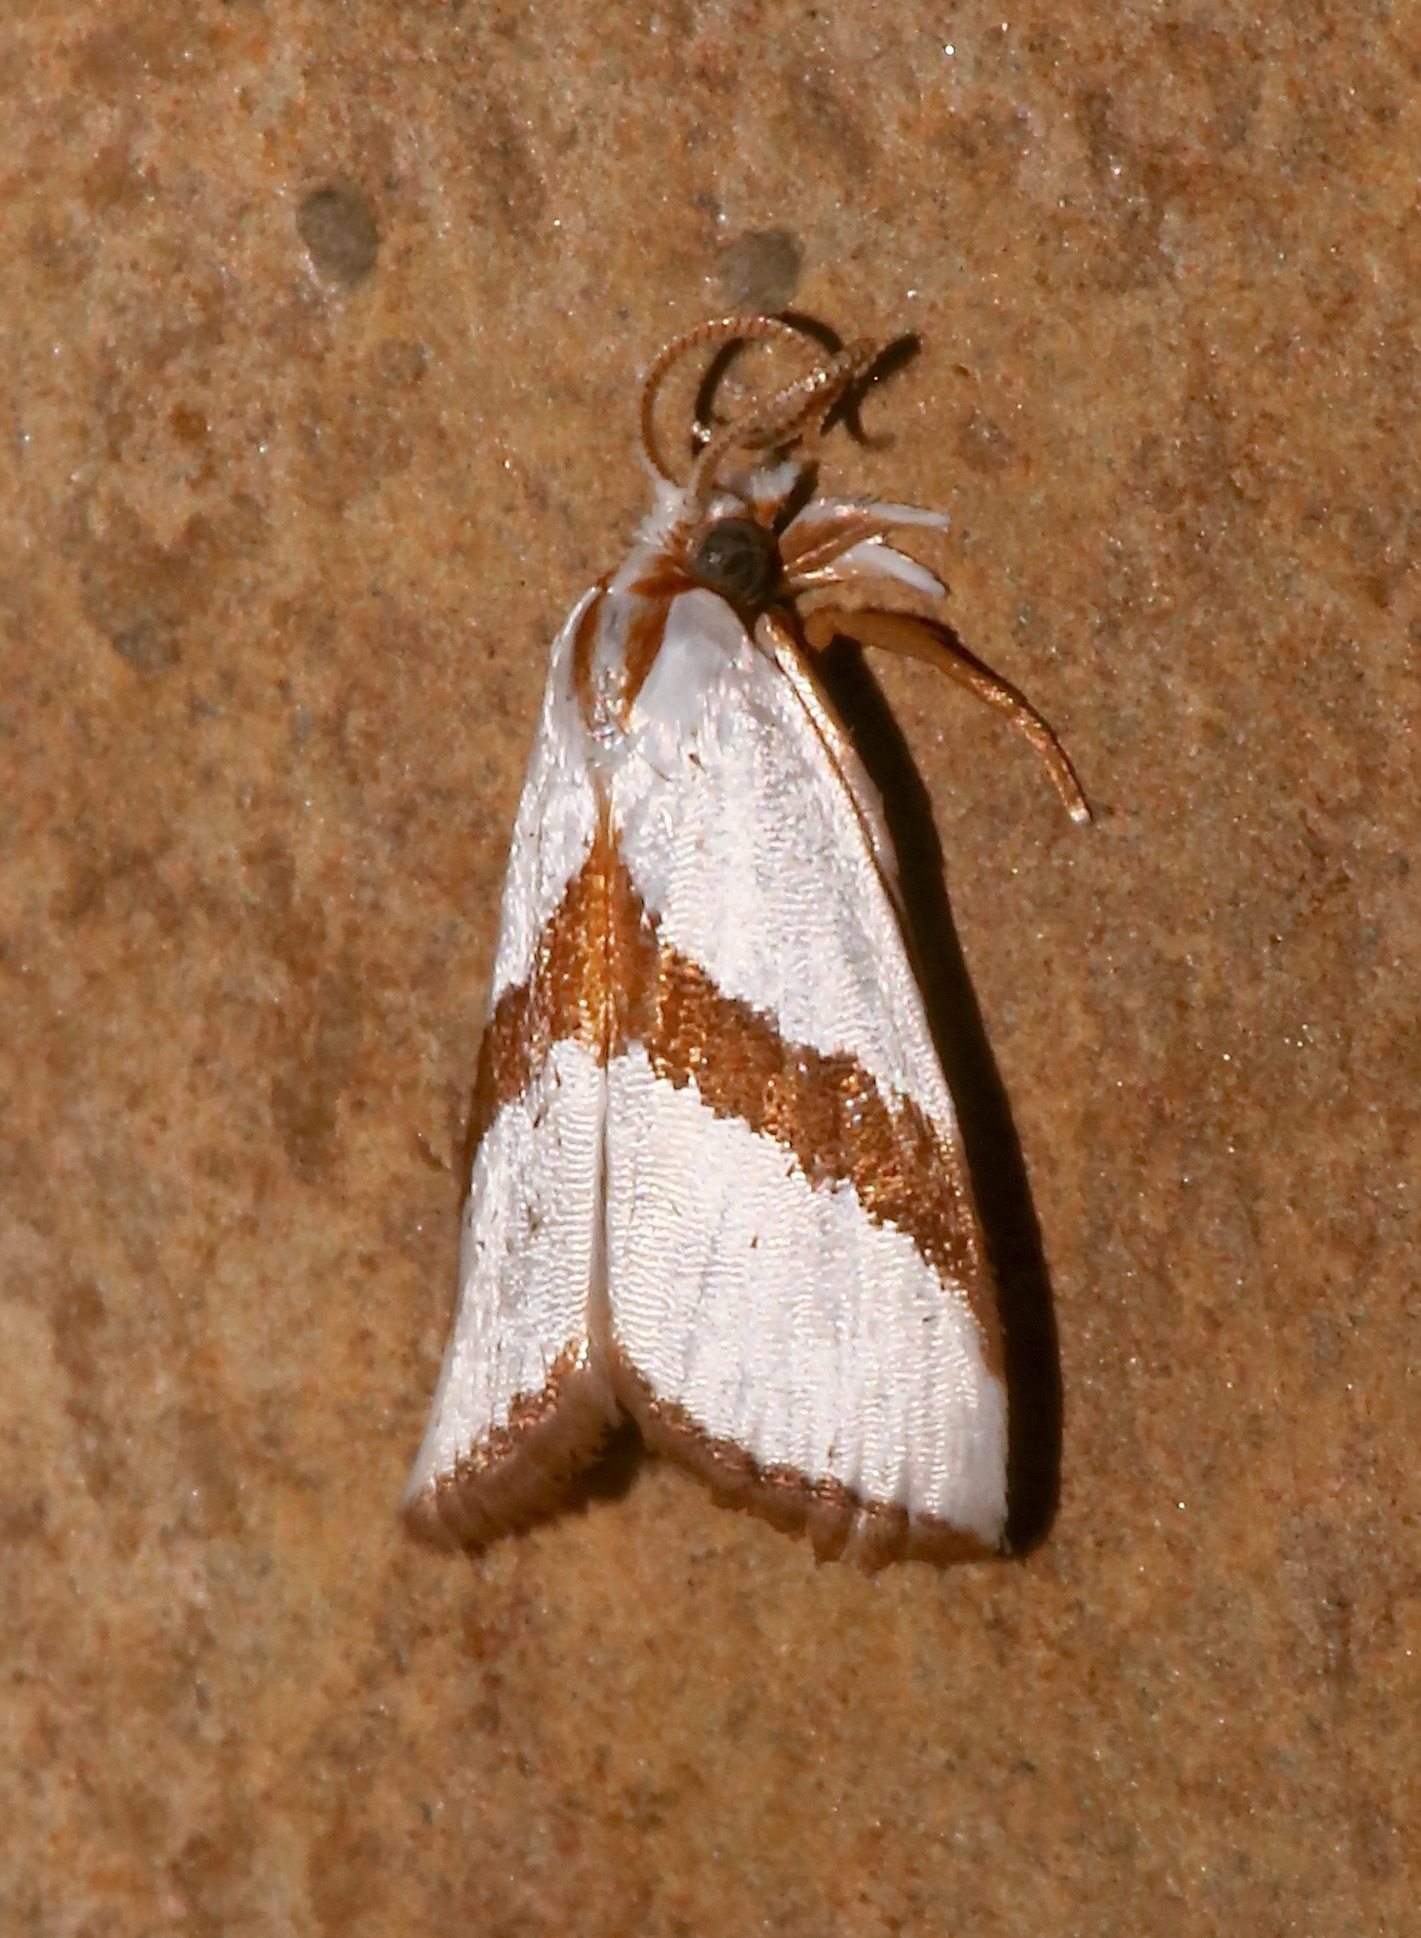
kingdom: Animalia
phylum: Arthropoda
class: Insecta
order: Lepidoptera
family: Crambidae
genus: Vaxi
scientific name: Vaxi critica
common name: Straight-lined vaxi moth
